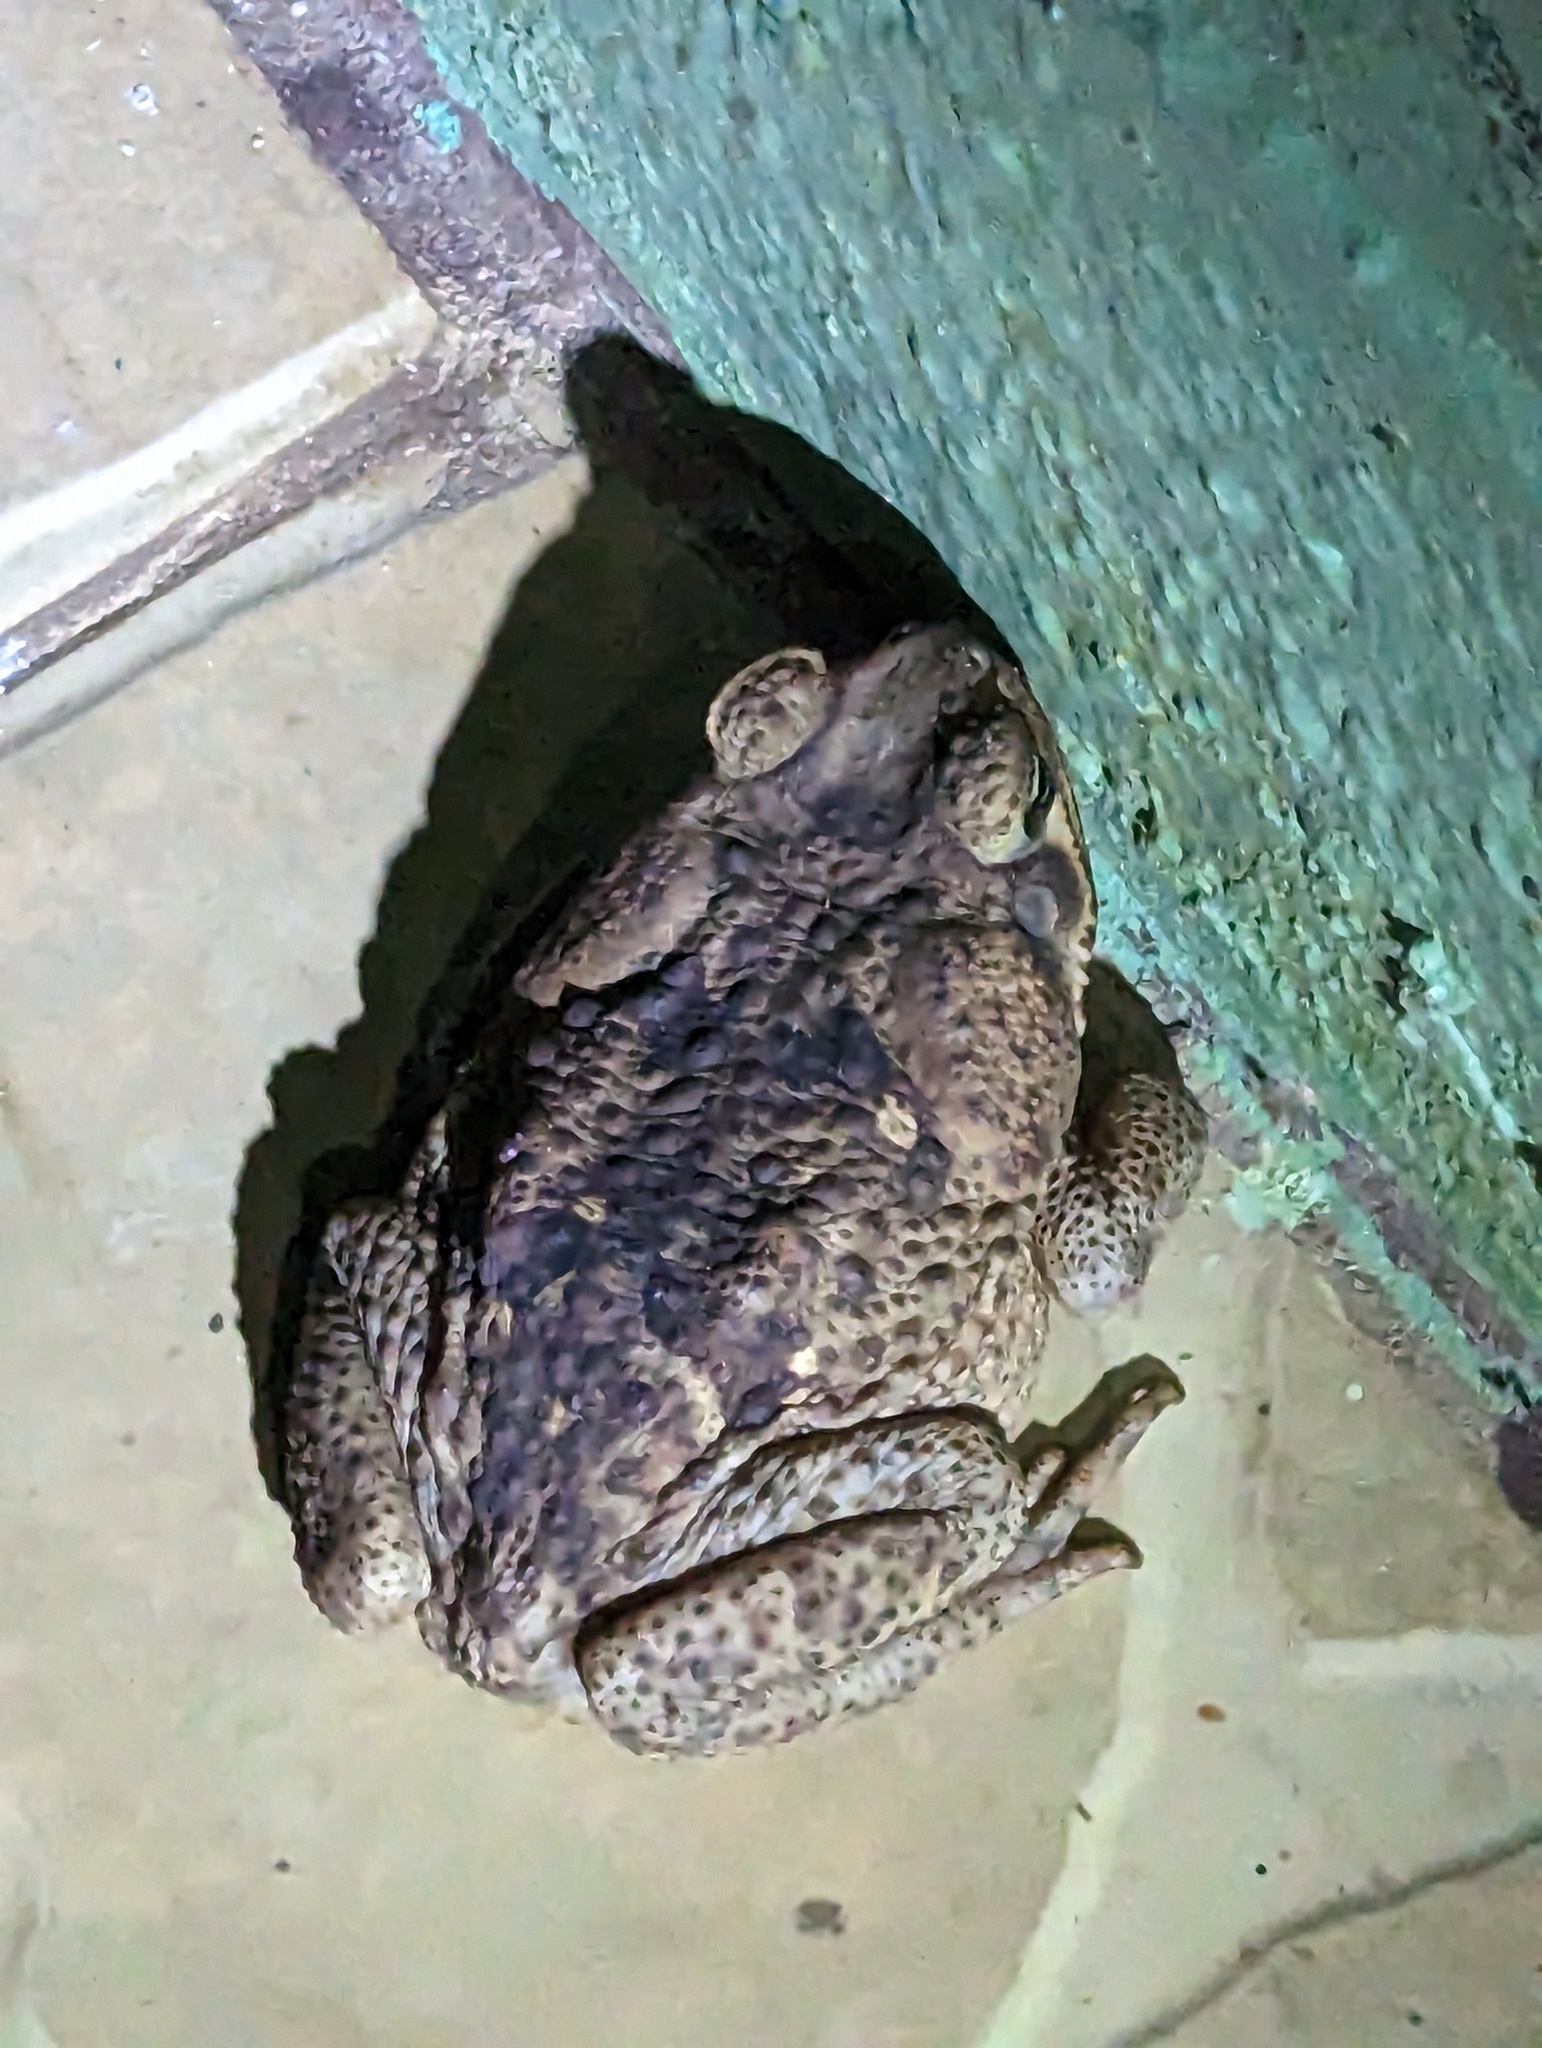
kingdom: Animalia
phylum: Chordata
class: Amphibia
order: Anura
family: Bufonidae
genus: Rhinella
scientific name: Rhinella horribilis
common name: Mesoamerican cane toad
